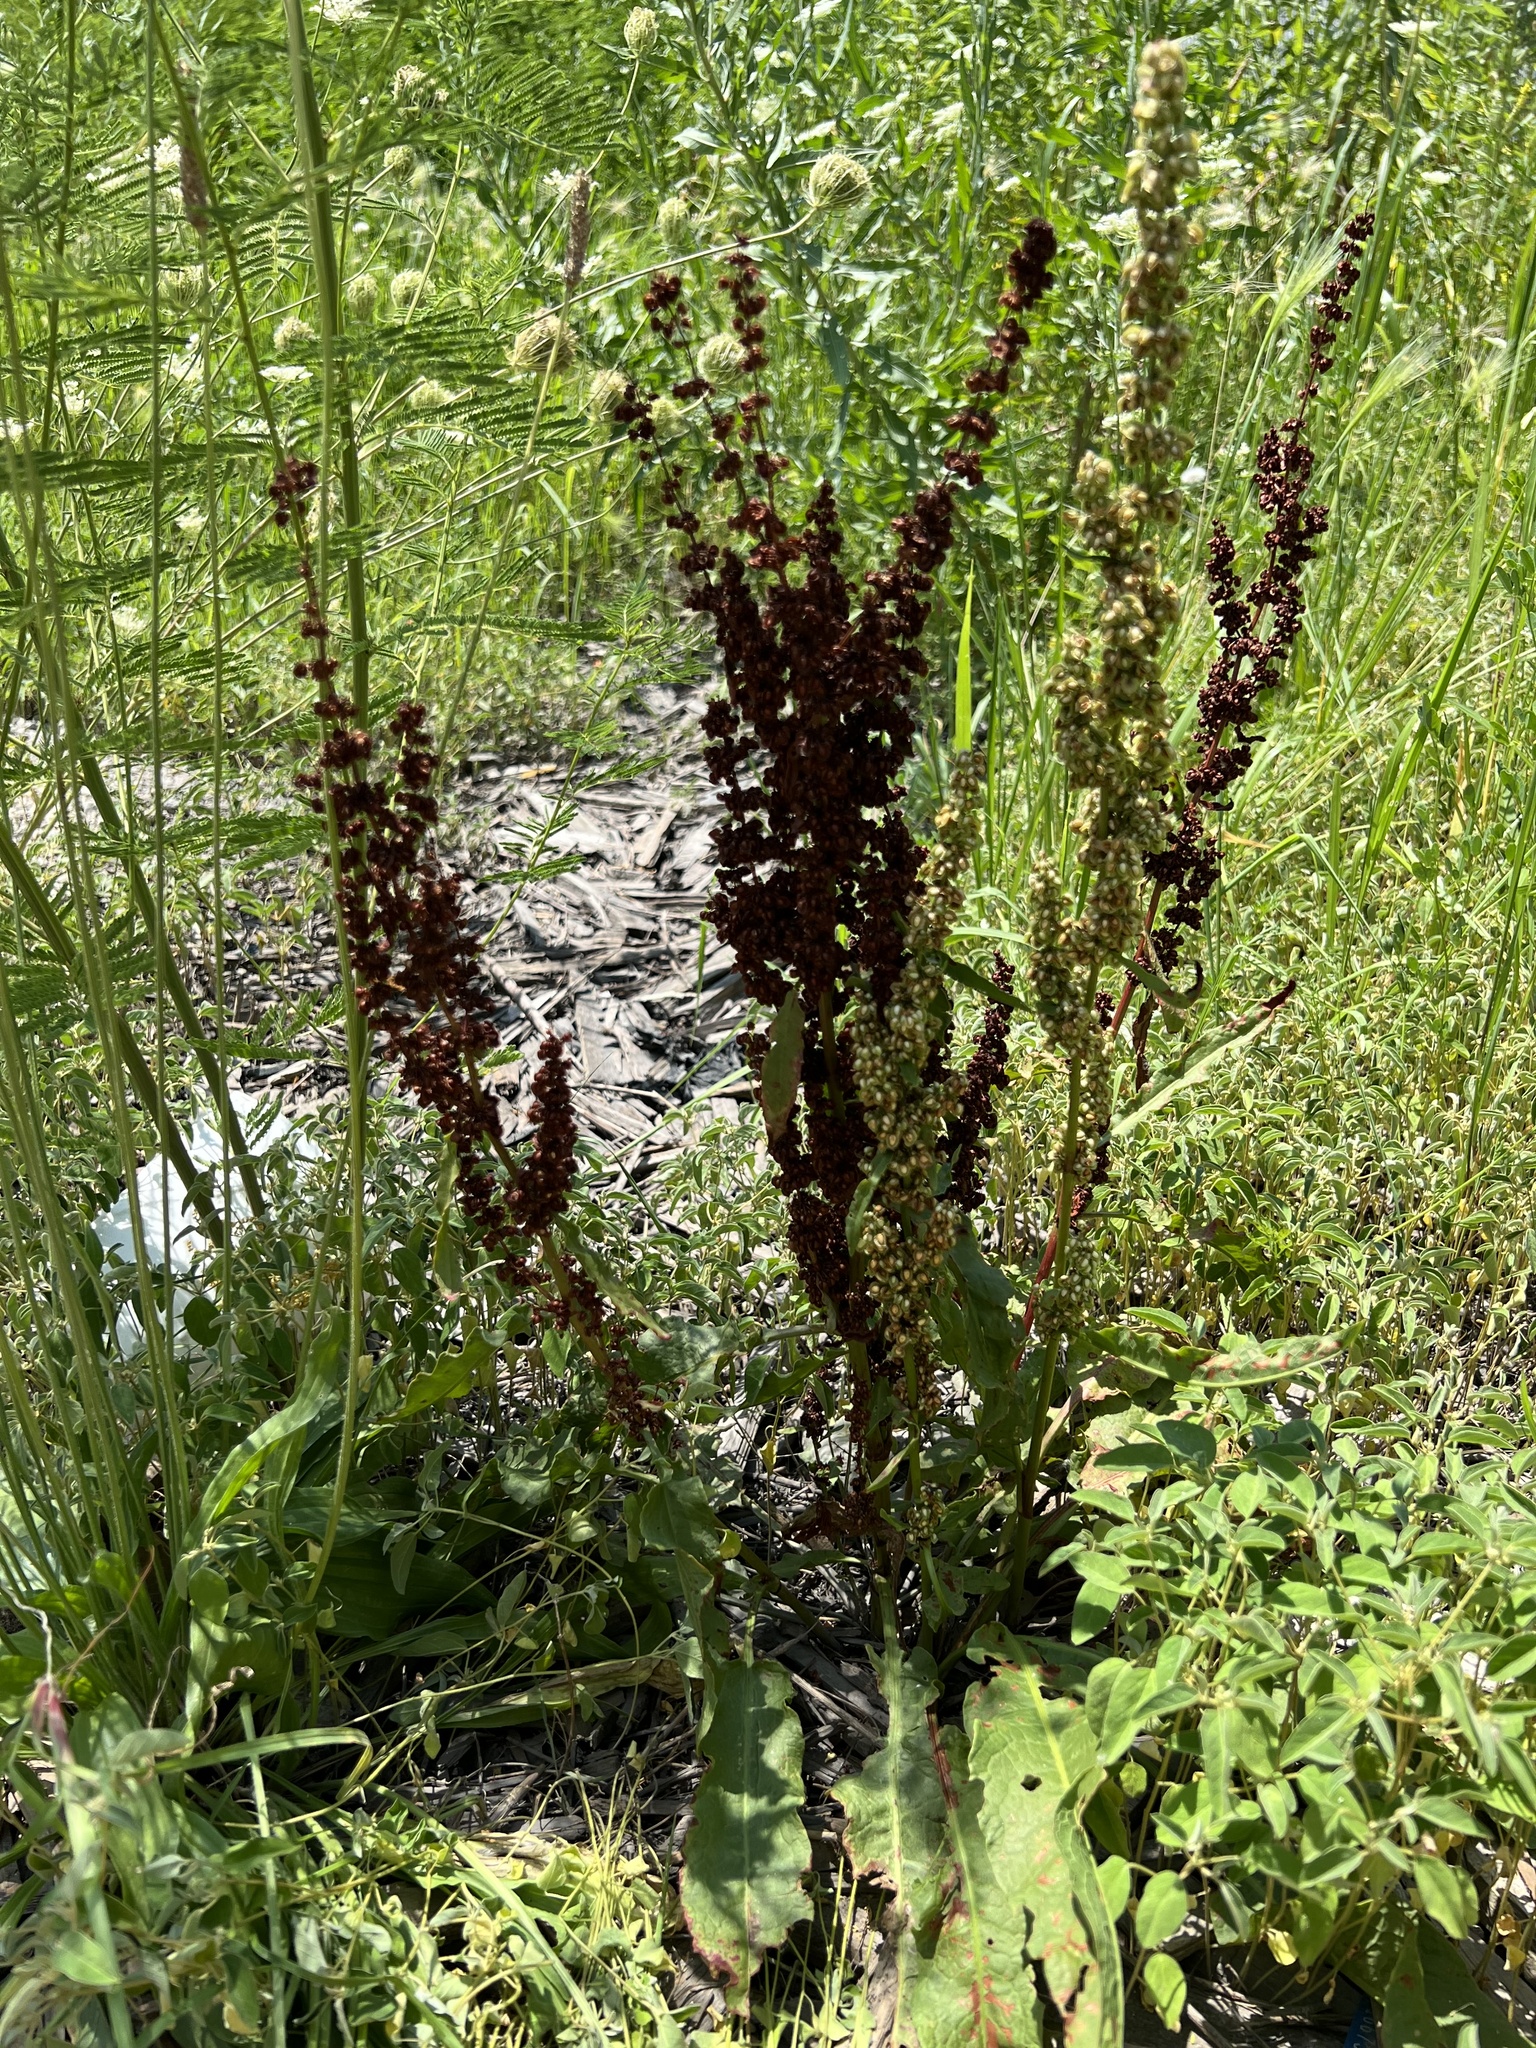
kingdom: Plantae
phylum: Tracheophyta
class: Magnoliopsida
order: Caryophyllales
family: Polygonaceae
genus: Rumex
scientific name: Rumex crispus
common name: Curled dock
